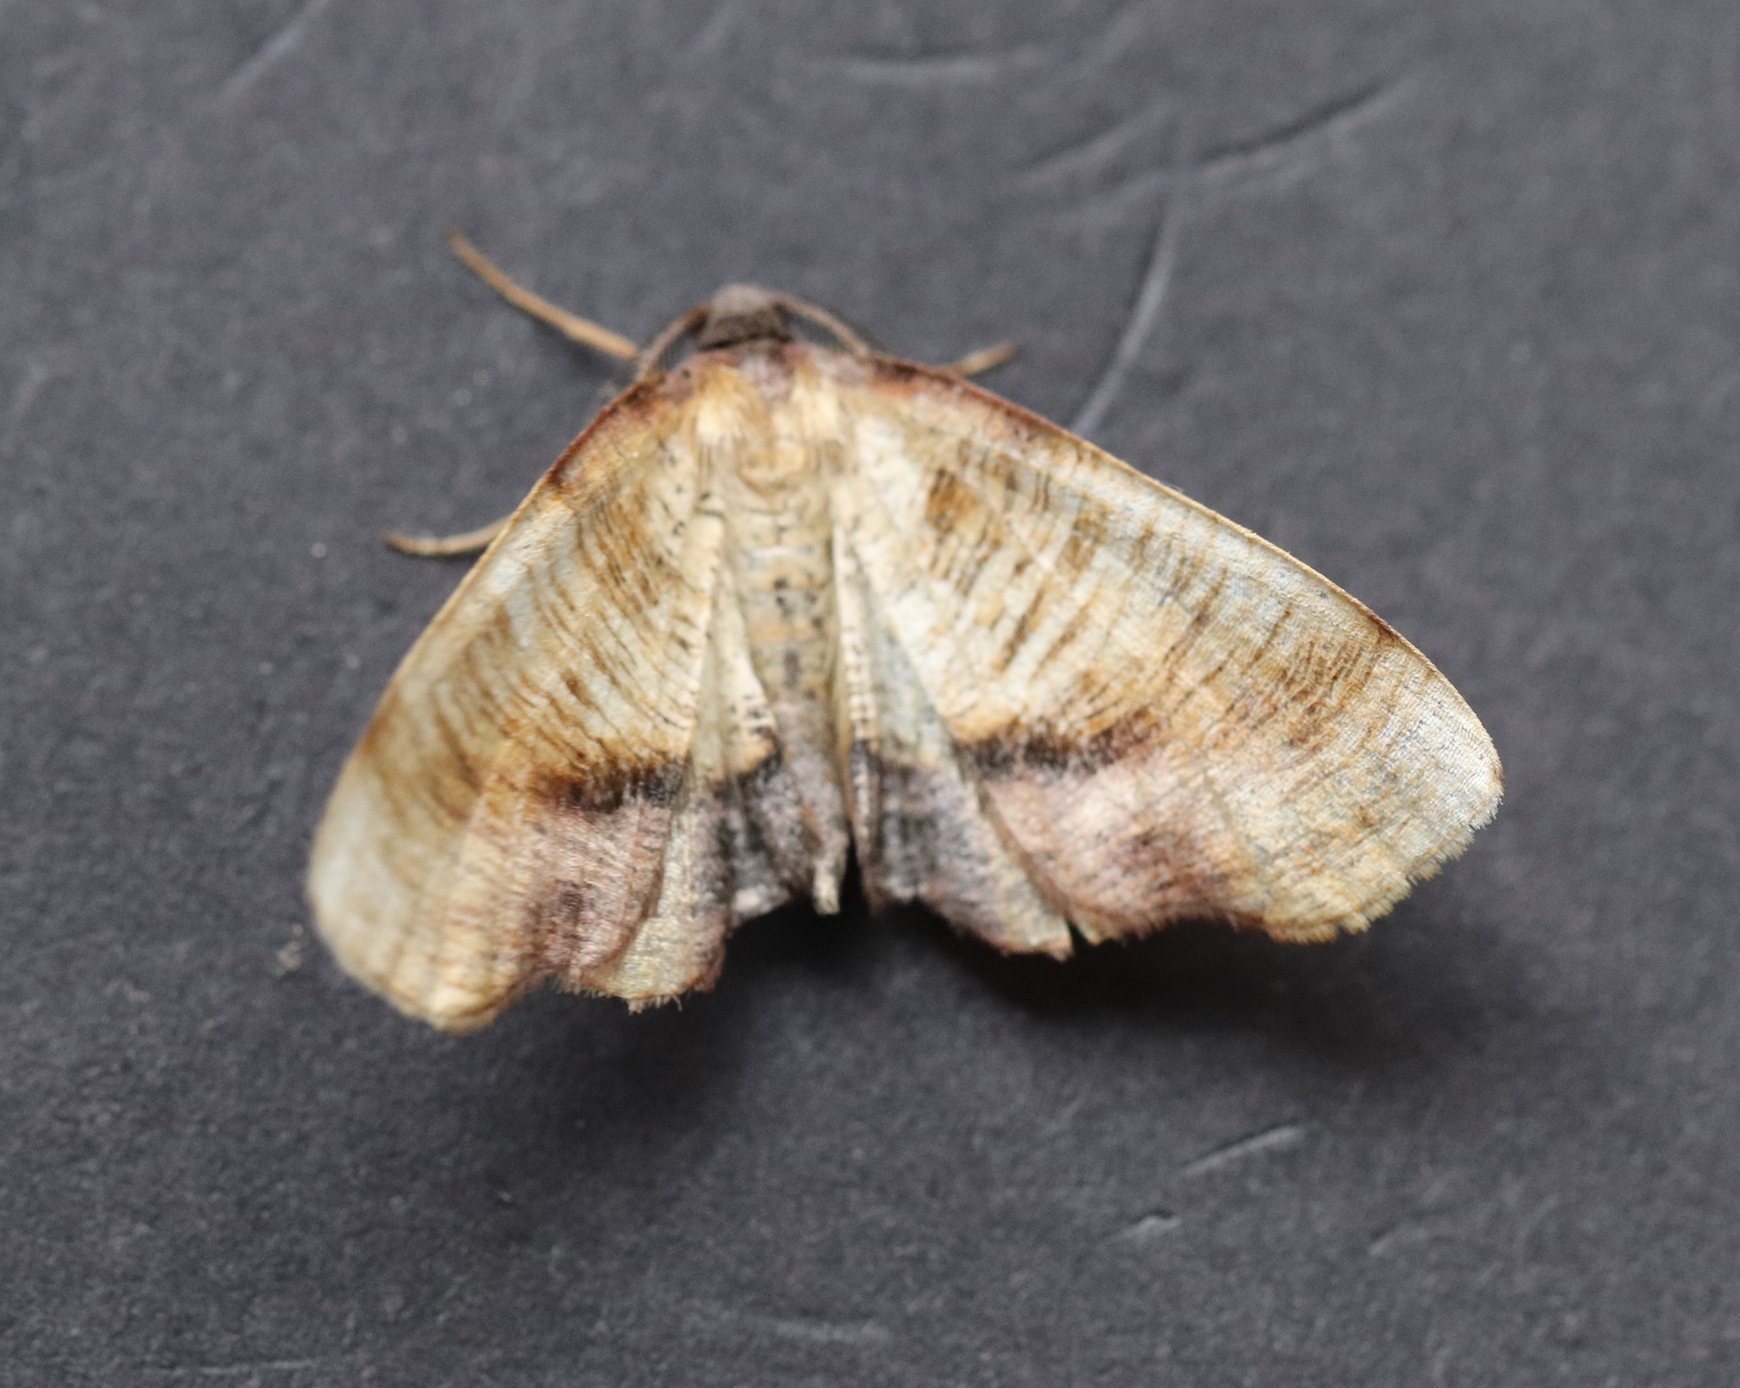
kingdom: Animalia
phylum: Arthropoda
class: Insecta
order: Lepidoptera
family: Geometridae
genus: Plagodis
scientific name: Plagodis dolabraria
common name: Scorched wing
